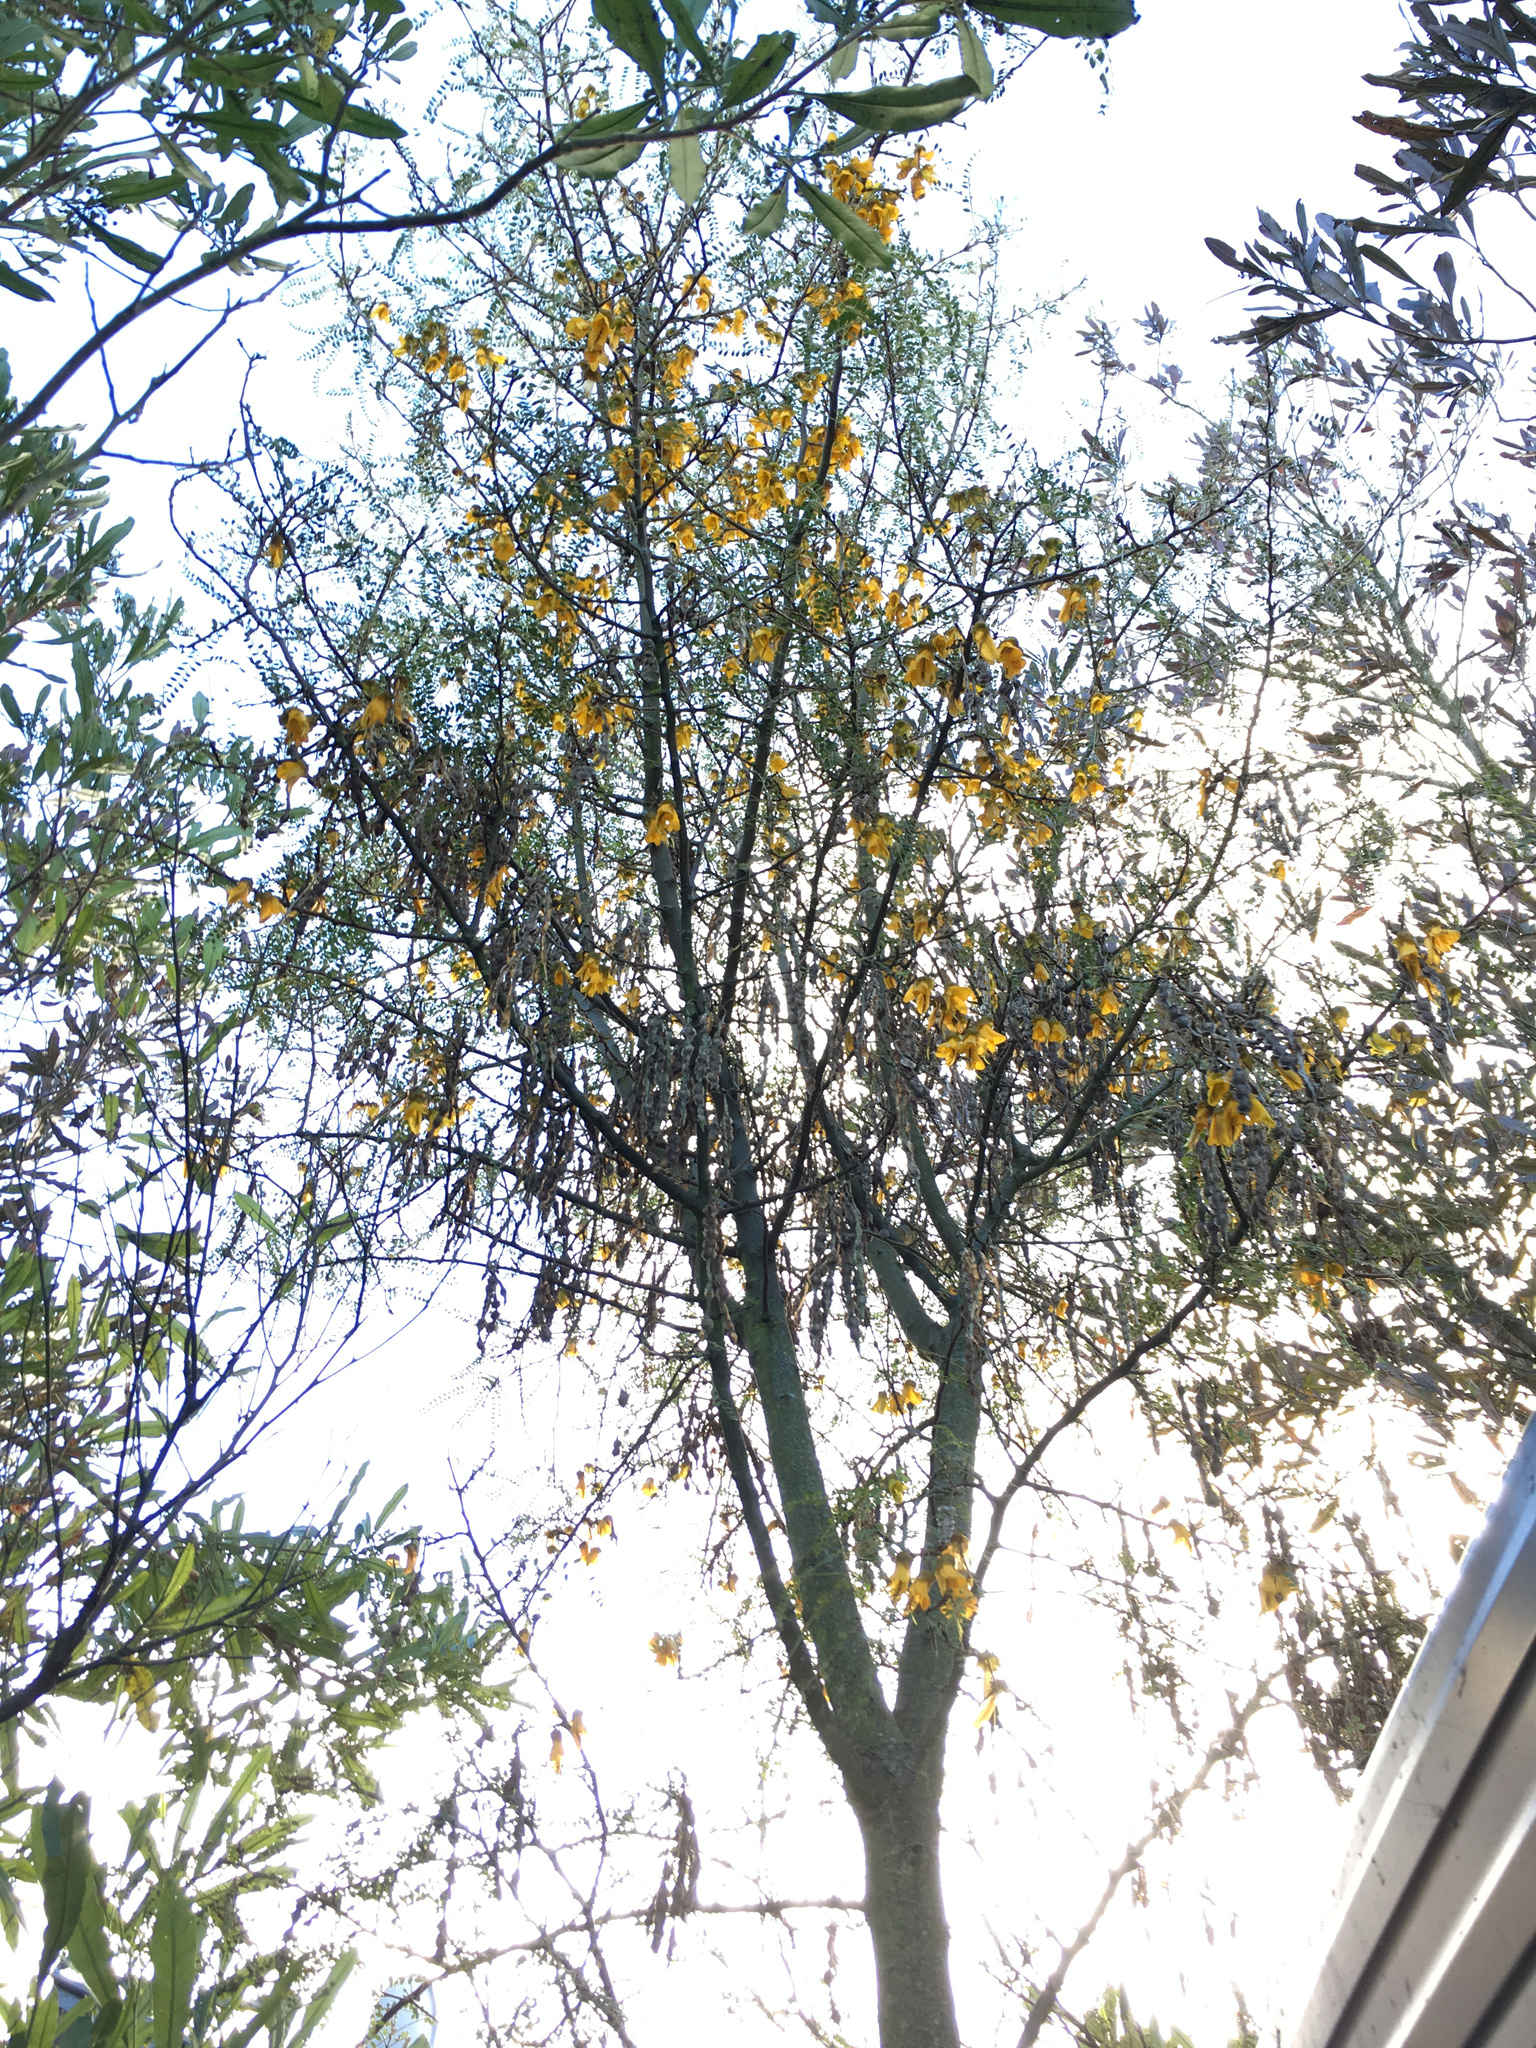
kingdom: Plantae
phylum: Tracheophyta
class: Magnoliopsida
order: Fabales
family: Fabaceae
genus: Sophora
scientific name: Sophora microphylla
